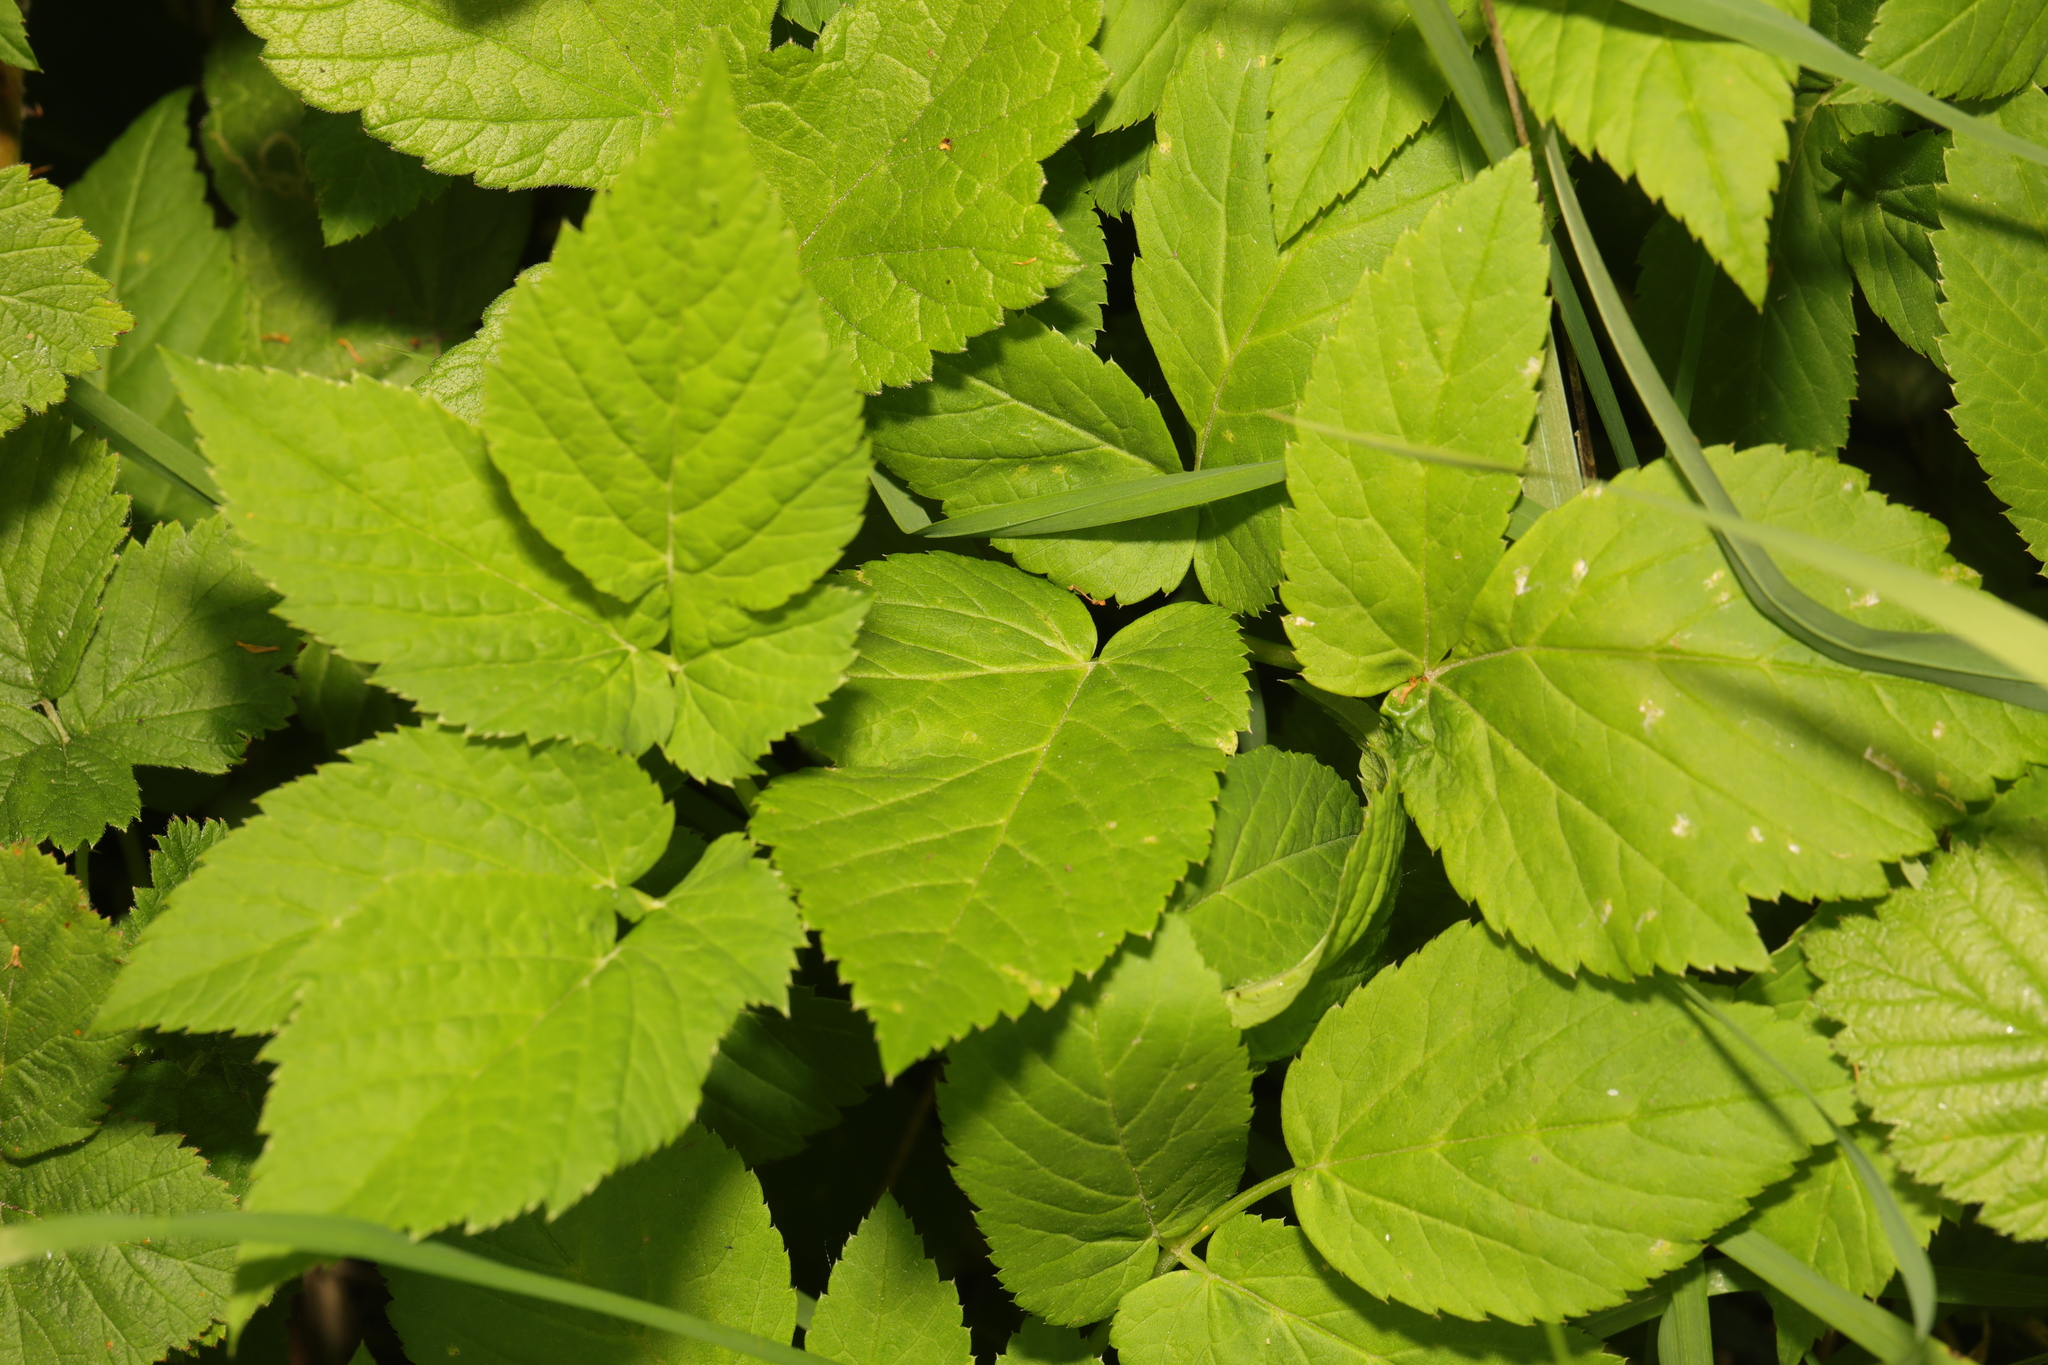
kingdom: Plantae
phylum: Tracheophyta
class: Magnoliopsida
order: Apiales
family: Apiaceae
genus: Aegopodium
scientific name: Aegopodium podagraria
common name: Ground-elder
